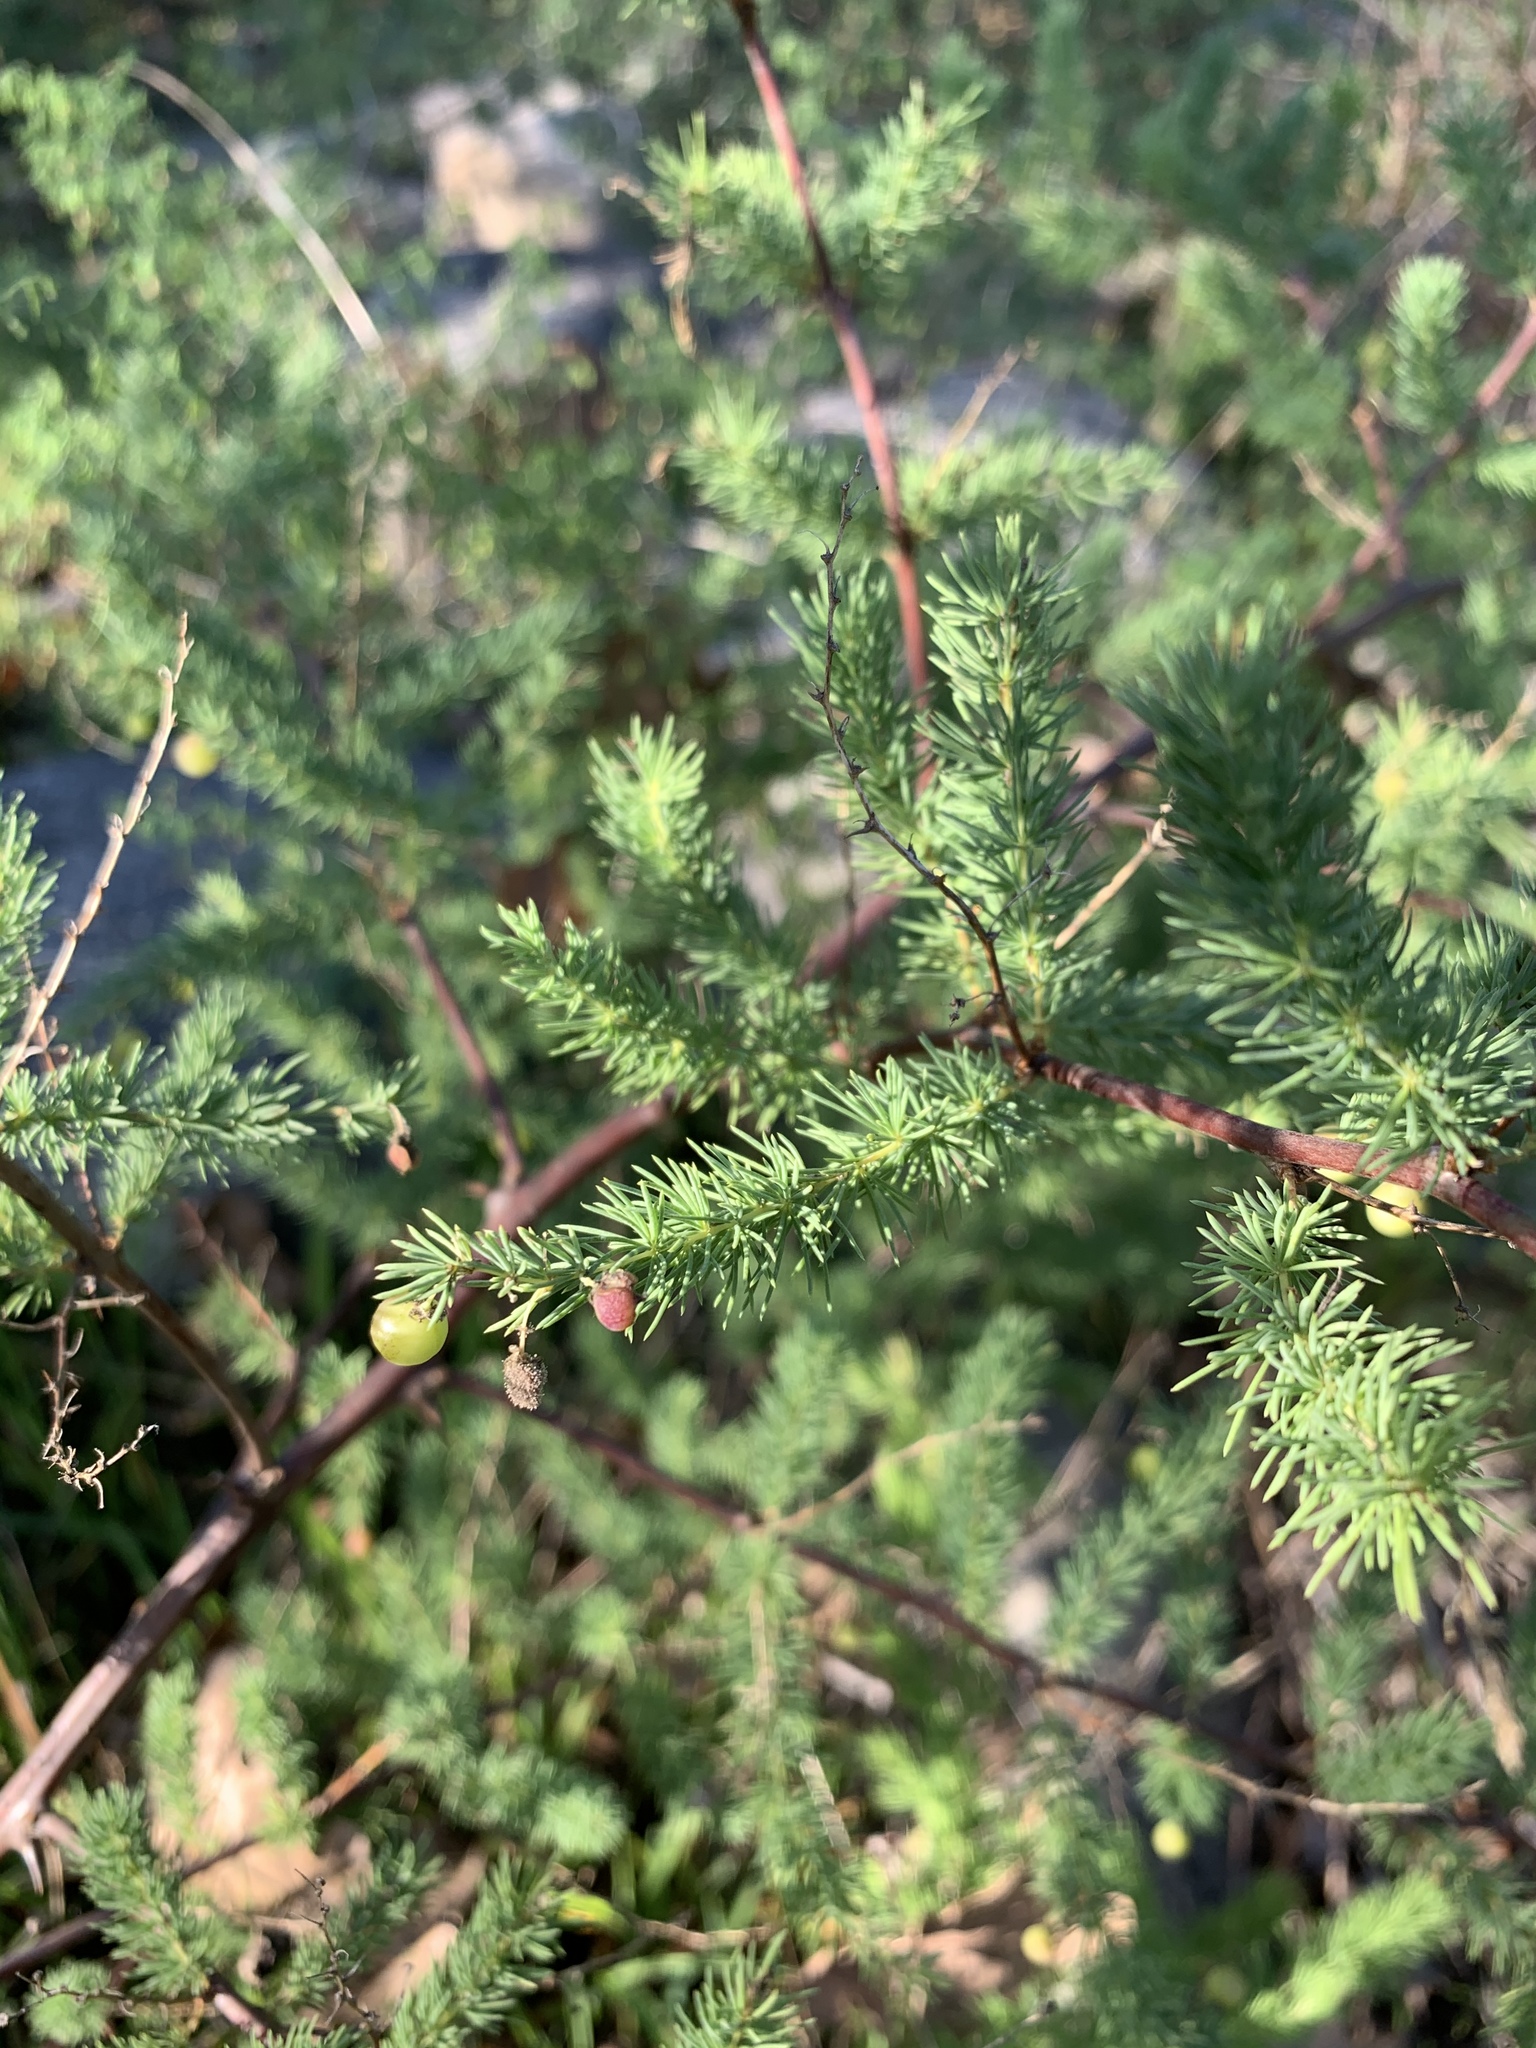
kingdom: Plantae
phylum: Tracheophyta
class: Liliopsida
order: Asparagales
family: Asparagaceae
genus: Asparagus
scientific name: Asparagus rubicundus
